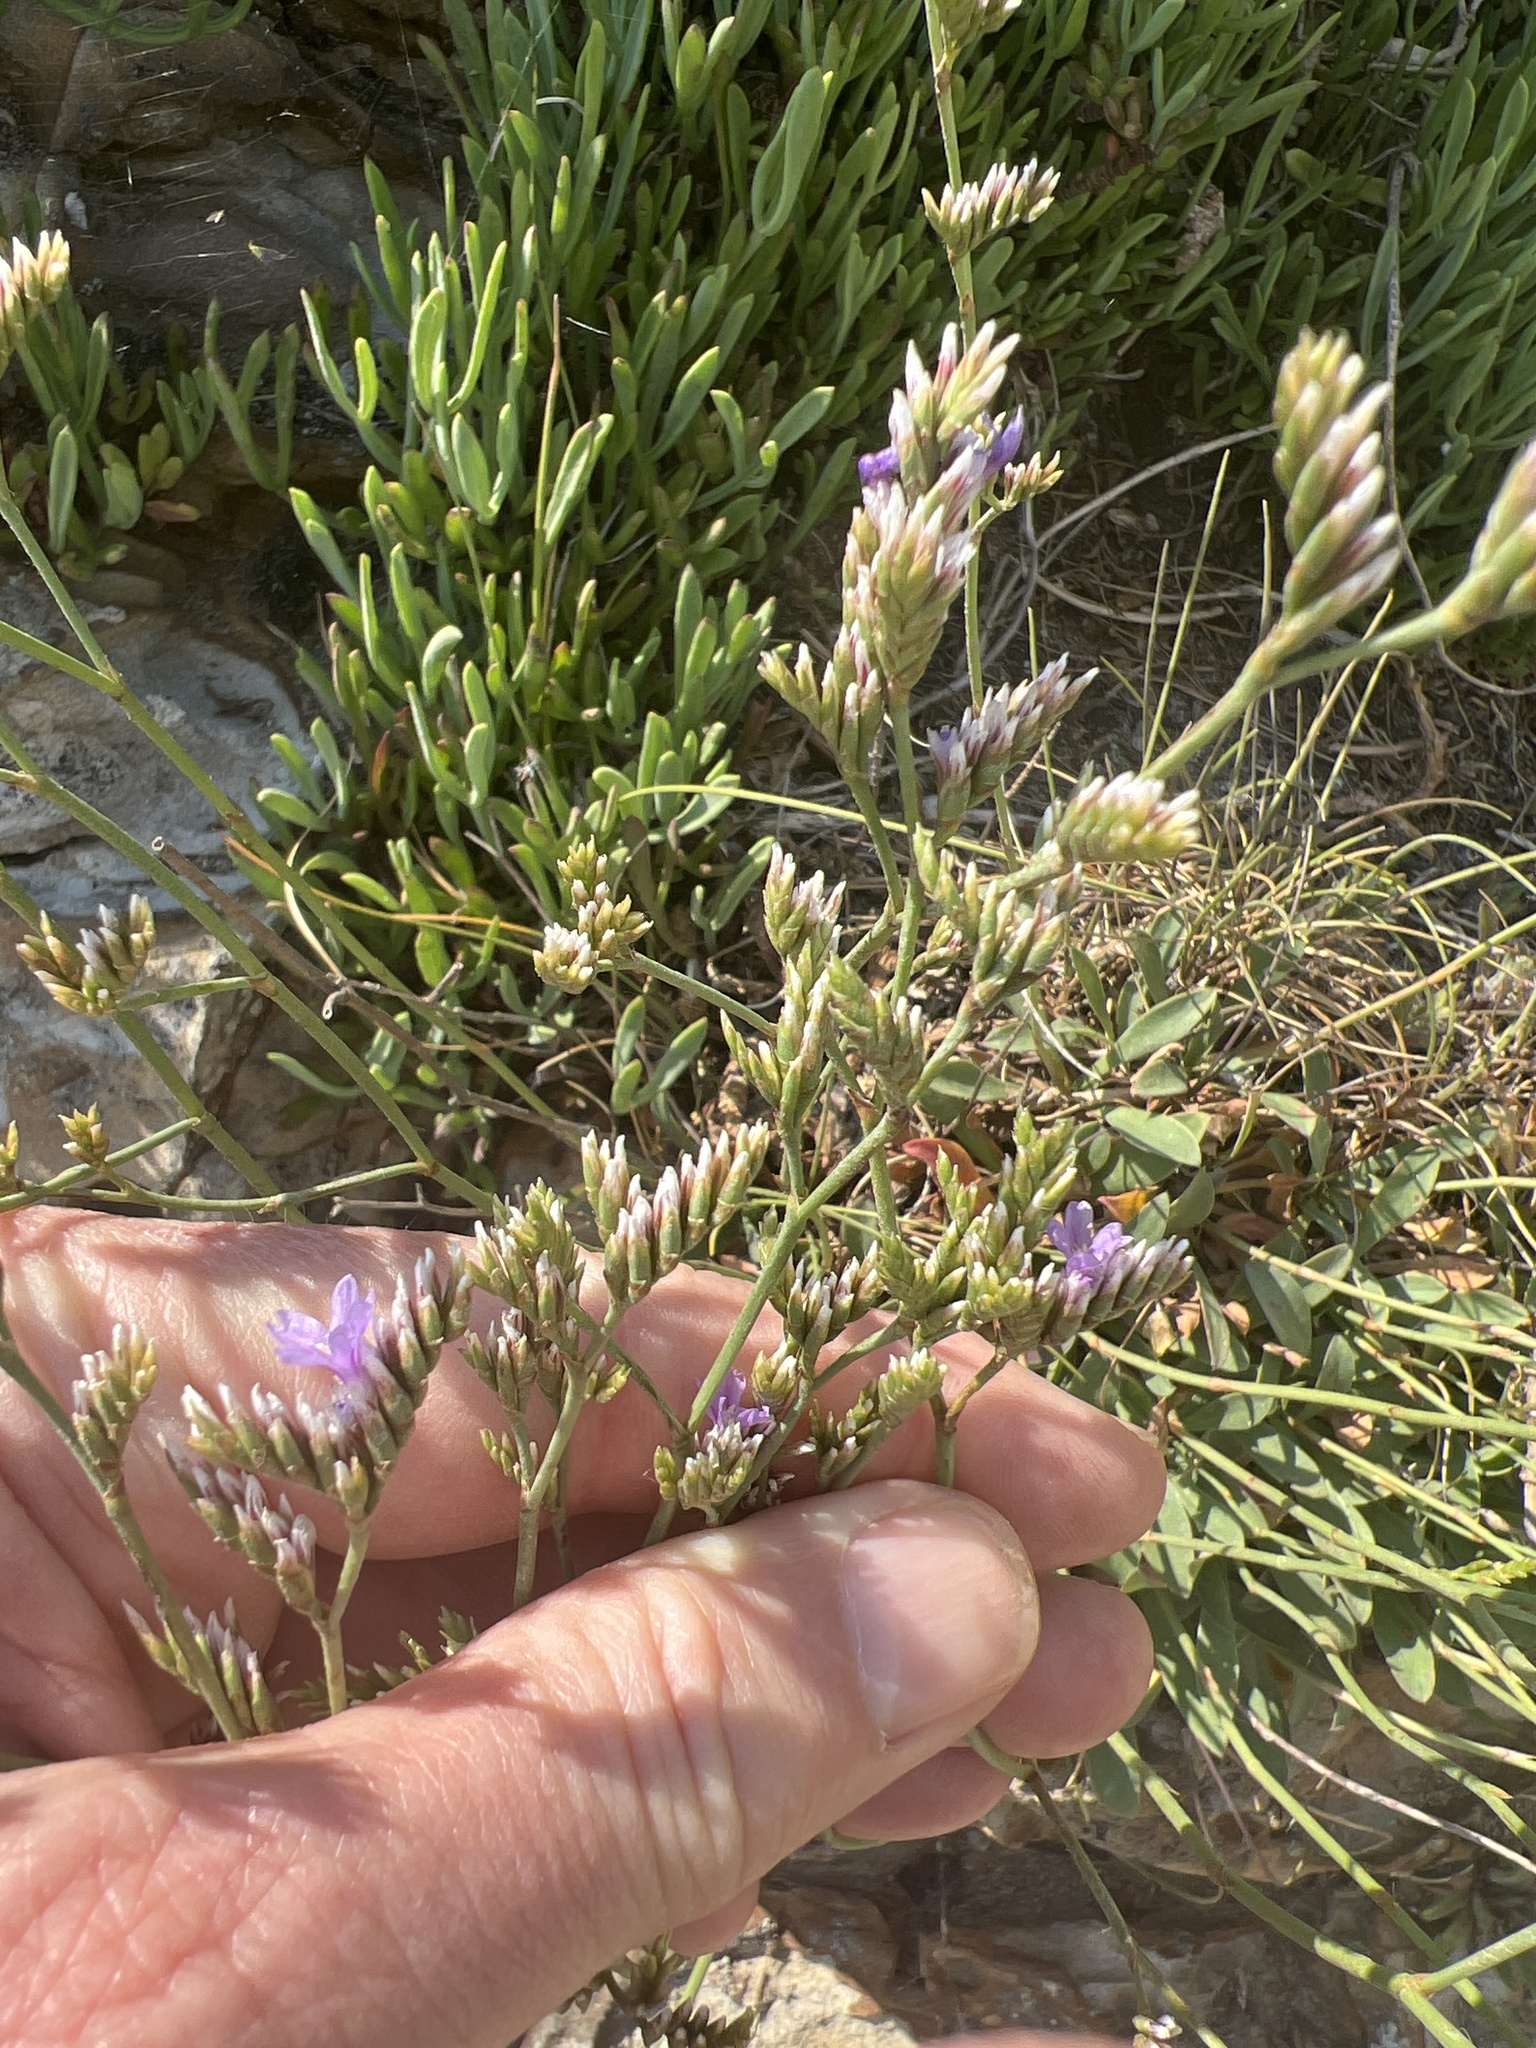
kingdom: Plantae
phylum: Tracheophyta
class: Magnoliopsida
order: Caryophyllales
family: Plumbaginaceae
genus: Limonium
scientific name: Limonium vulgare
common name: Common sea-lavender
